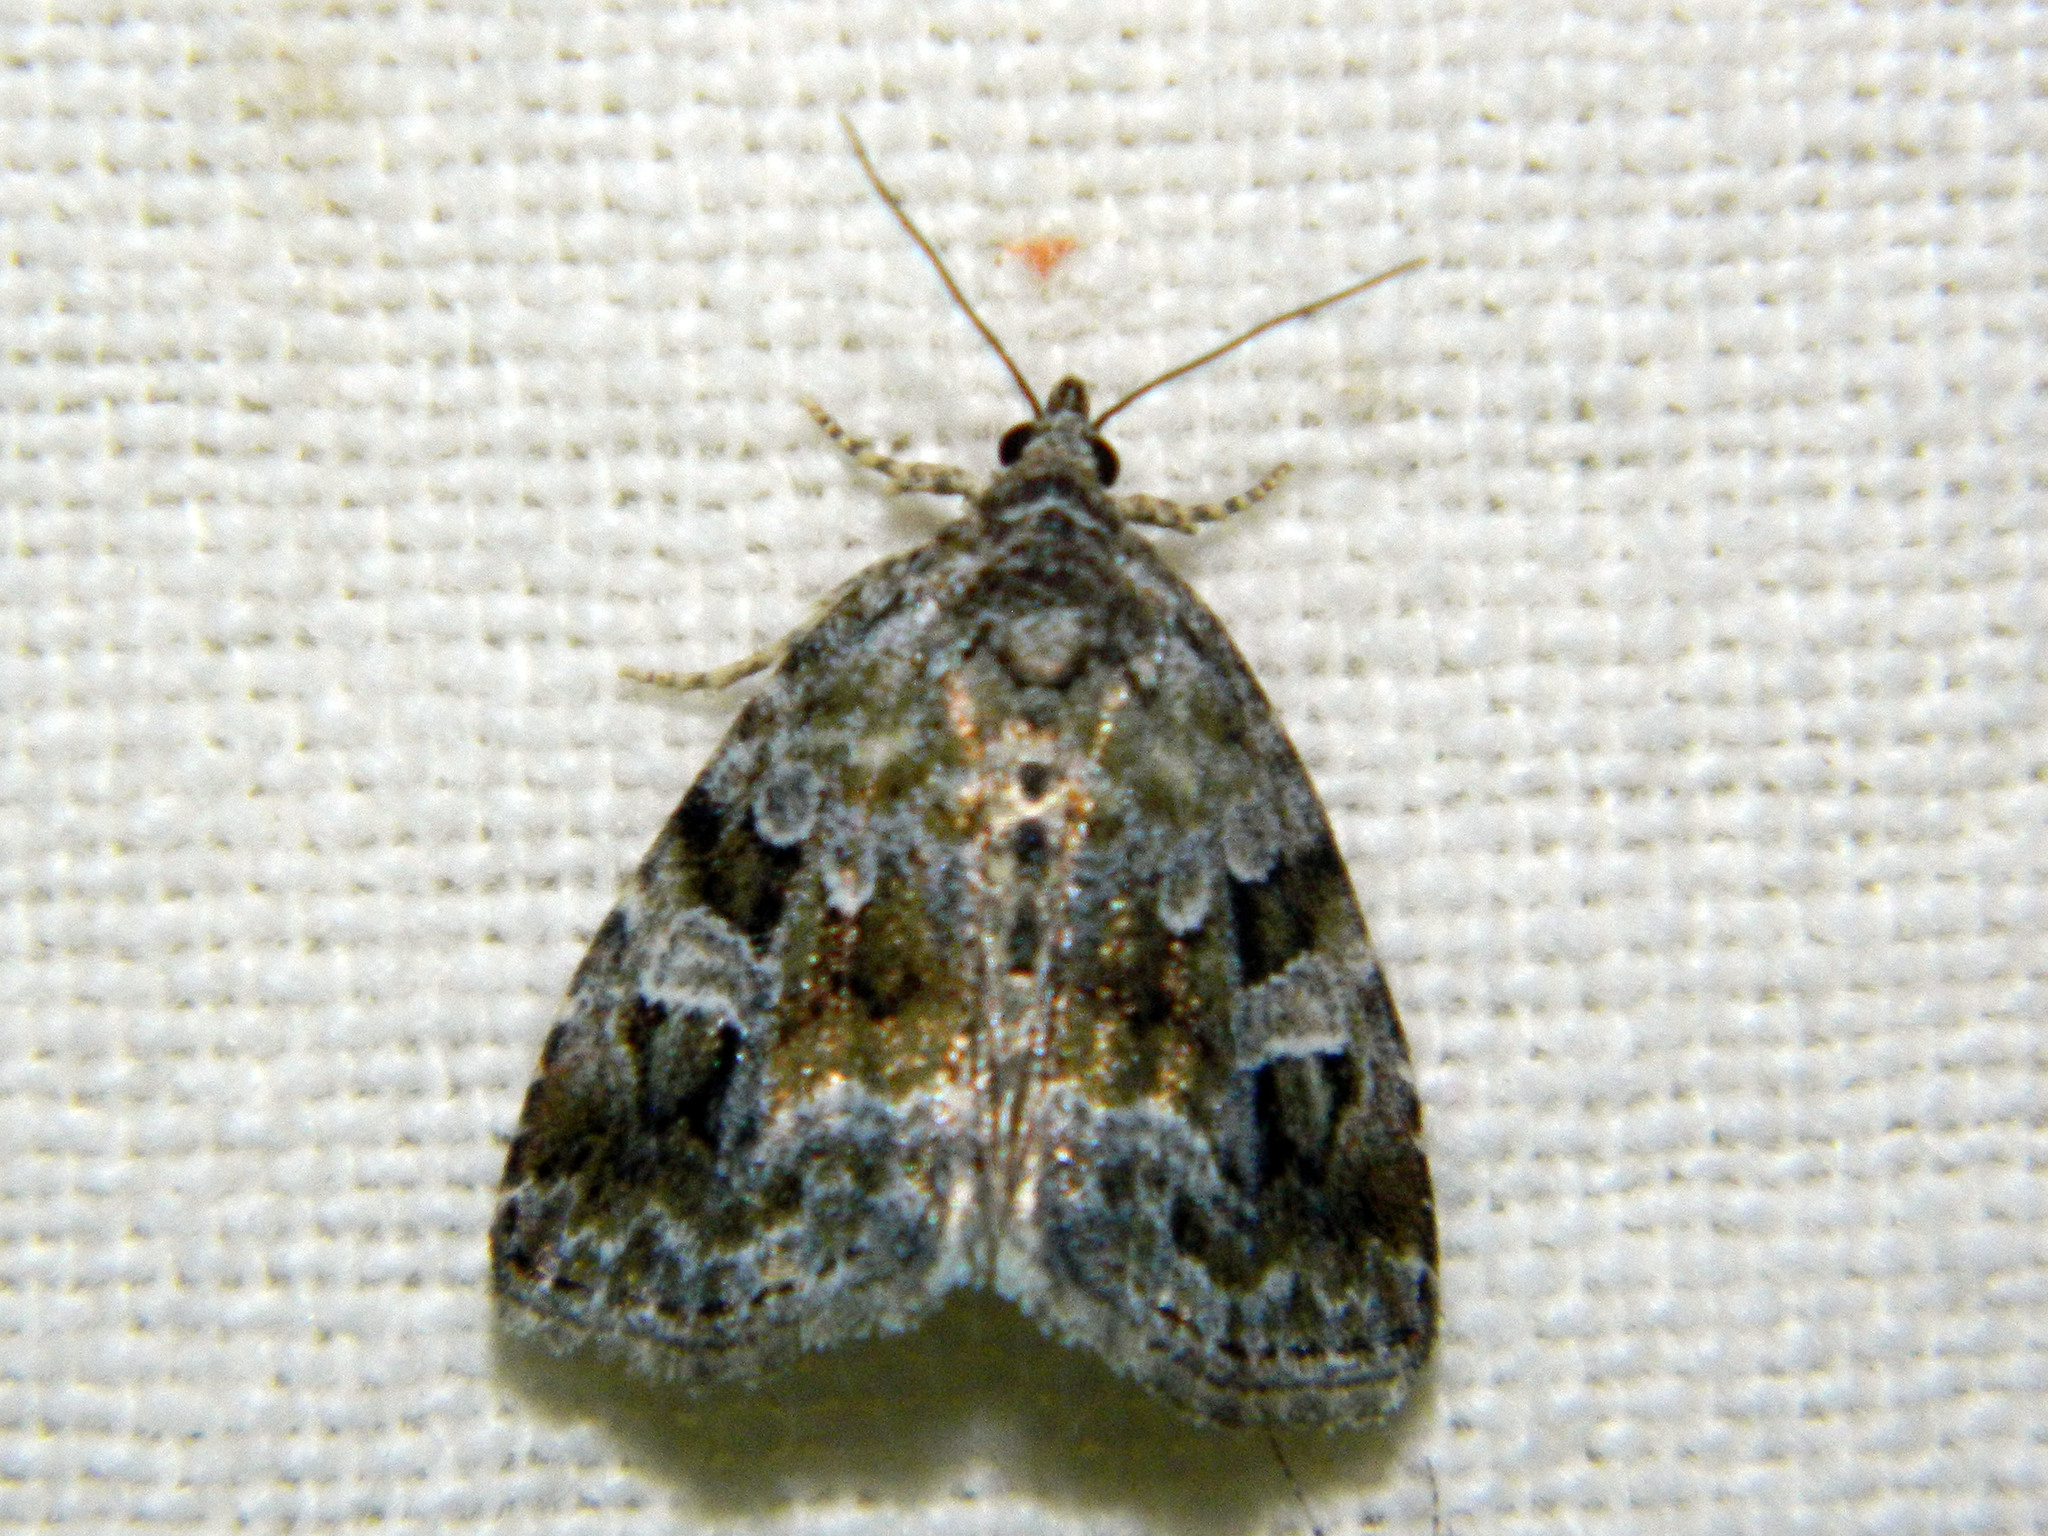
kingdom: Animalia
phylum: Arthropoda
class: Insecta
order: Lepidoptera
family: Noctuidae
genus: Protodeltote
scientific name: Protodeltote muscosula
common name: Large mossy glyph
